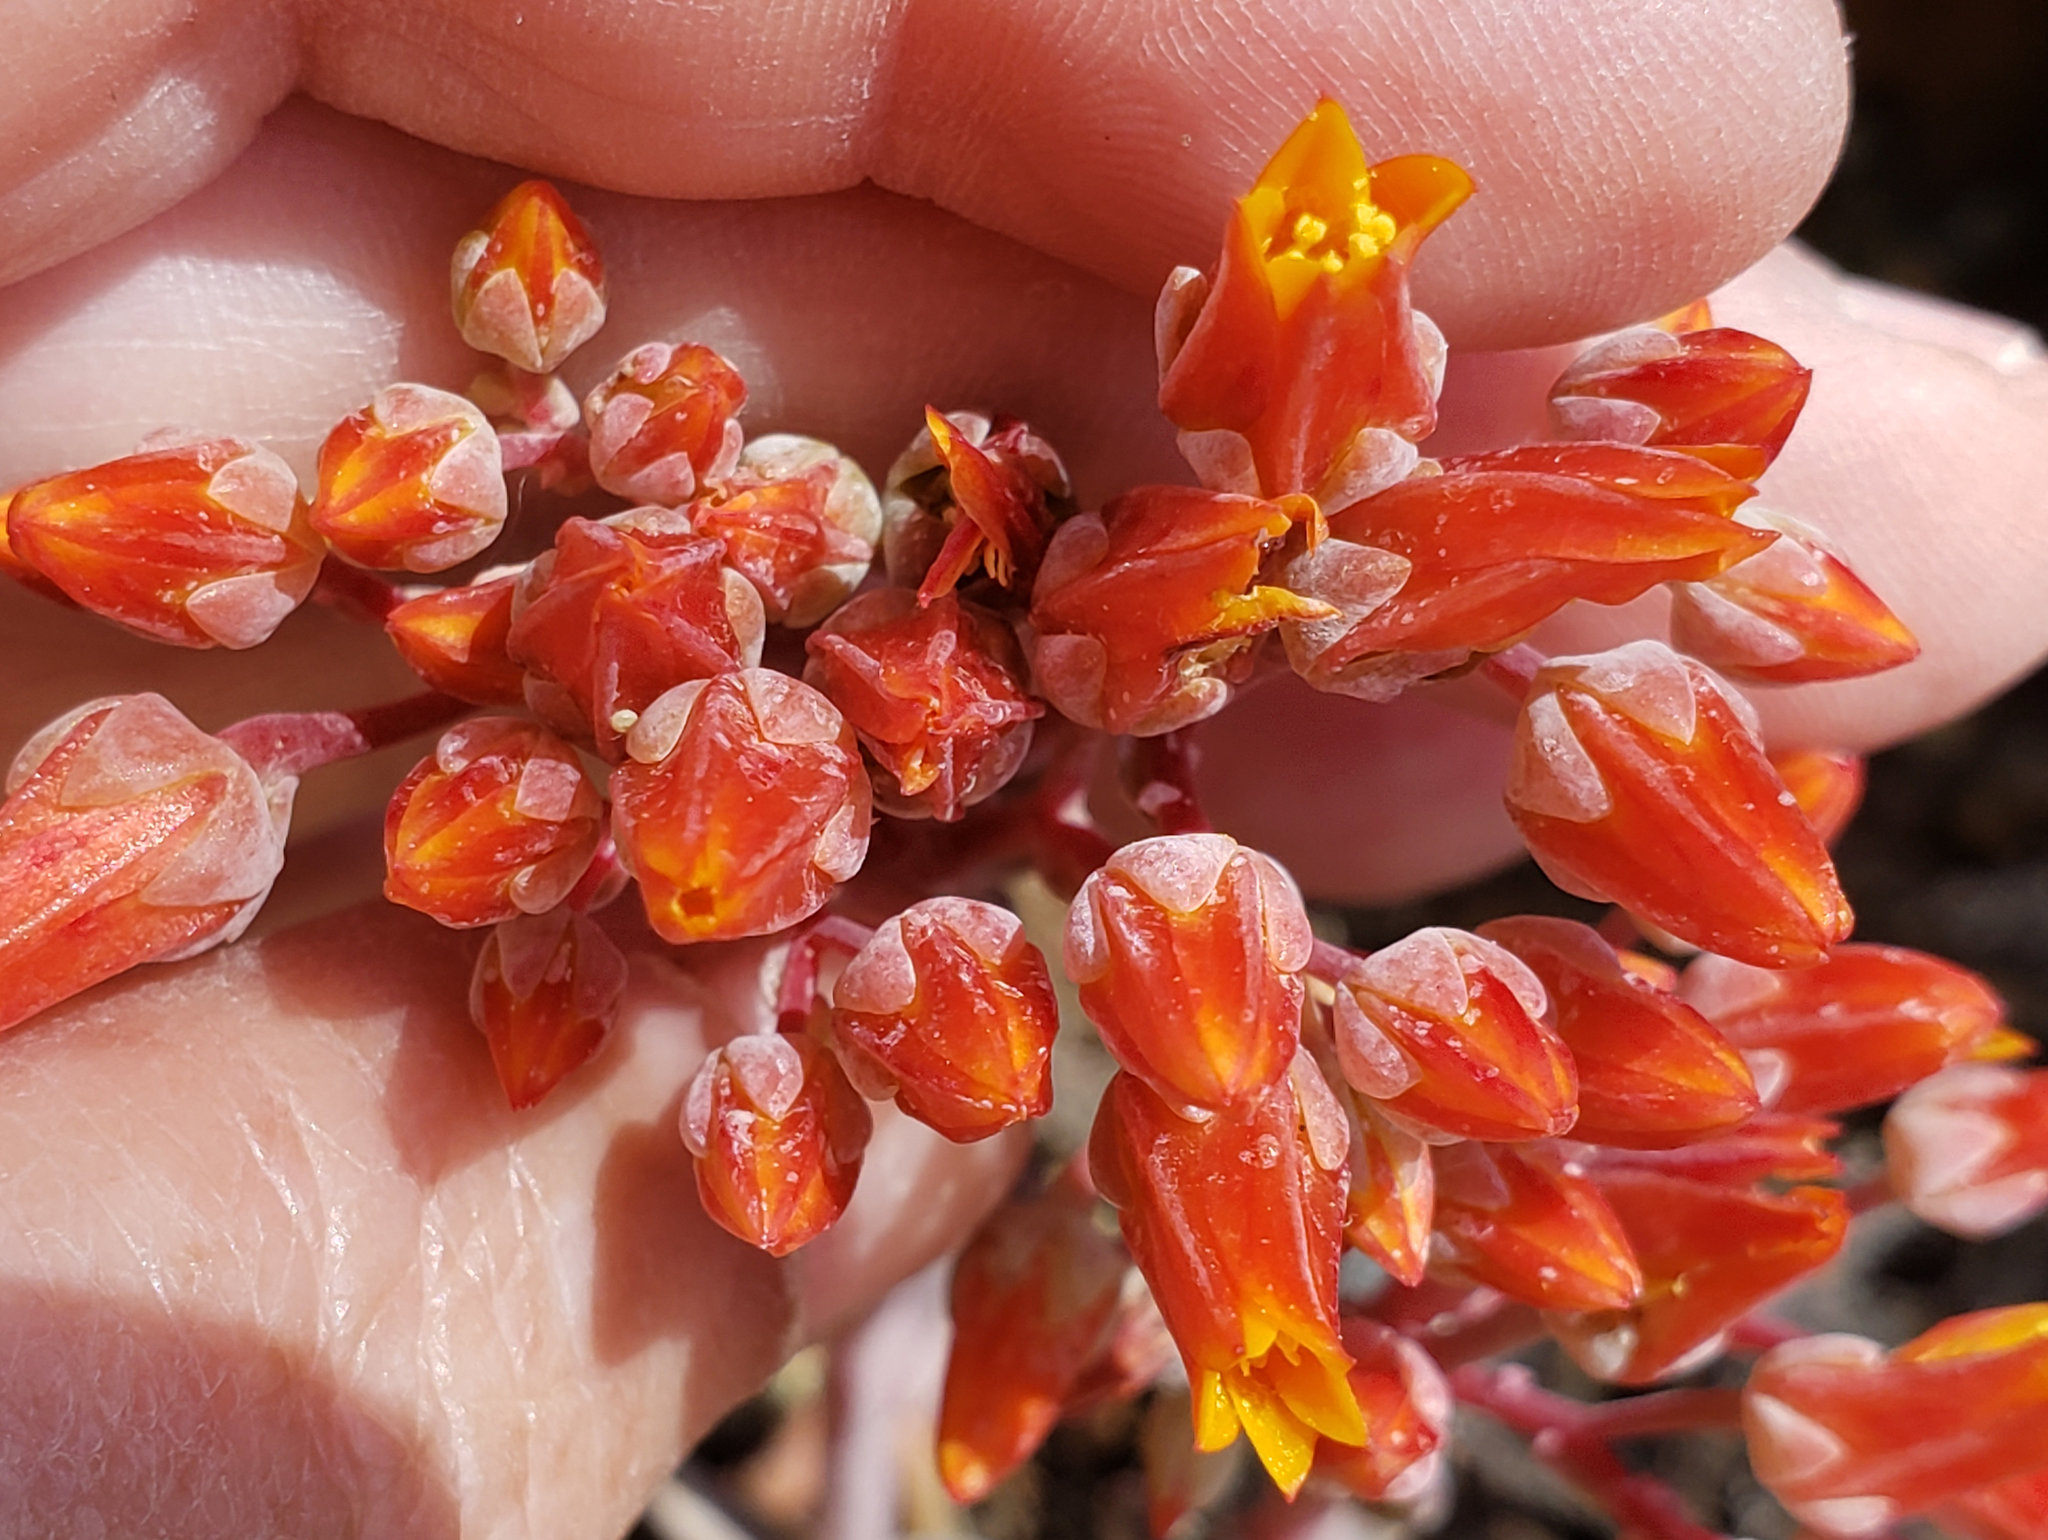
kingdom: Plantae
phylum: Tracheophyta
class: Magnoliopsida
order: Saxifragales
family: Crassulaceae
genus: Dudleya
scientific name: Dudleya cymosa
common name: Canyon dudleya
